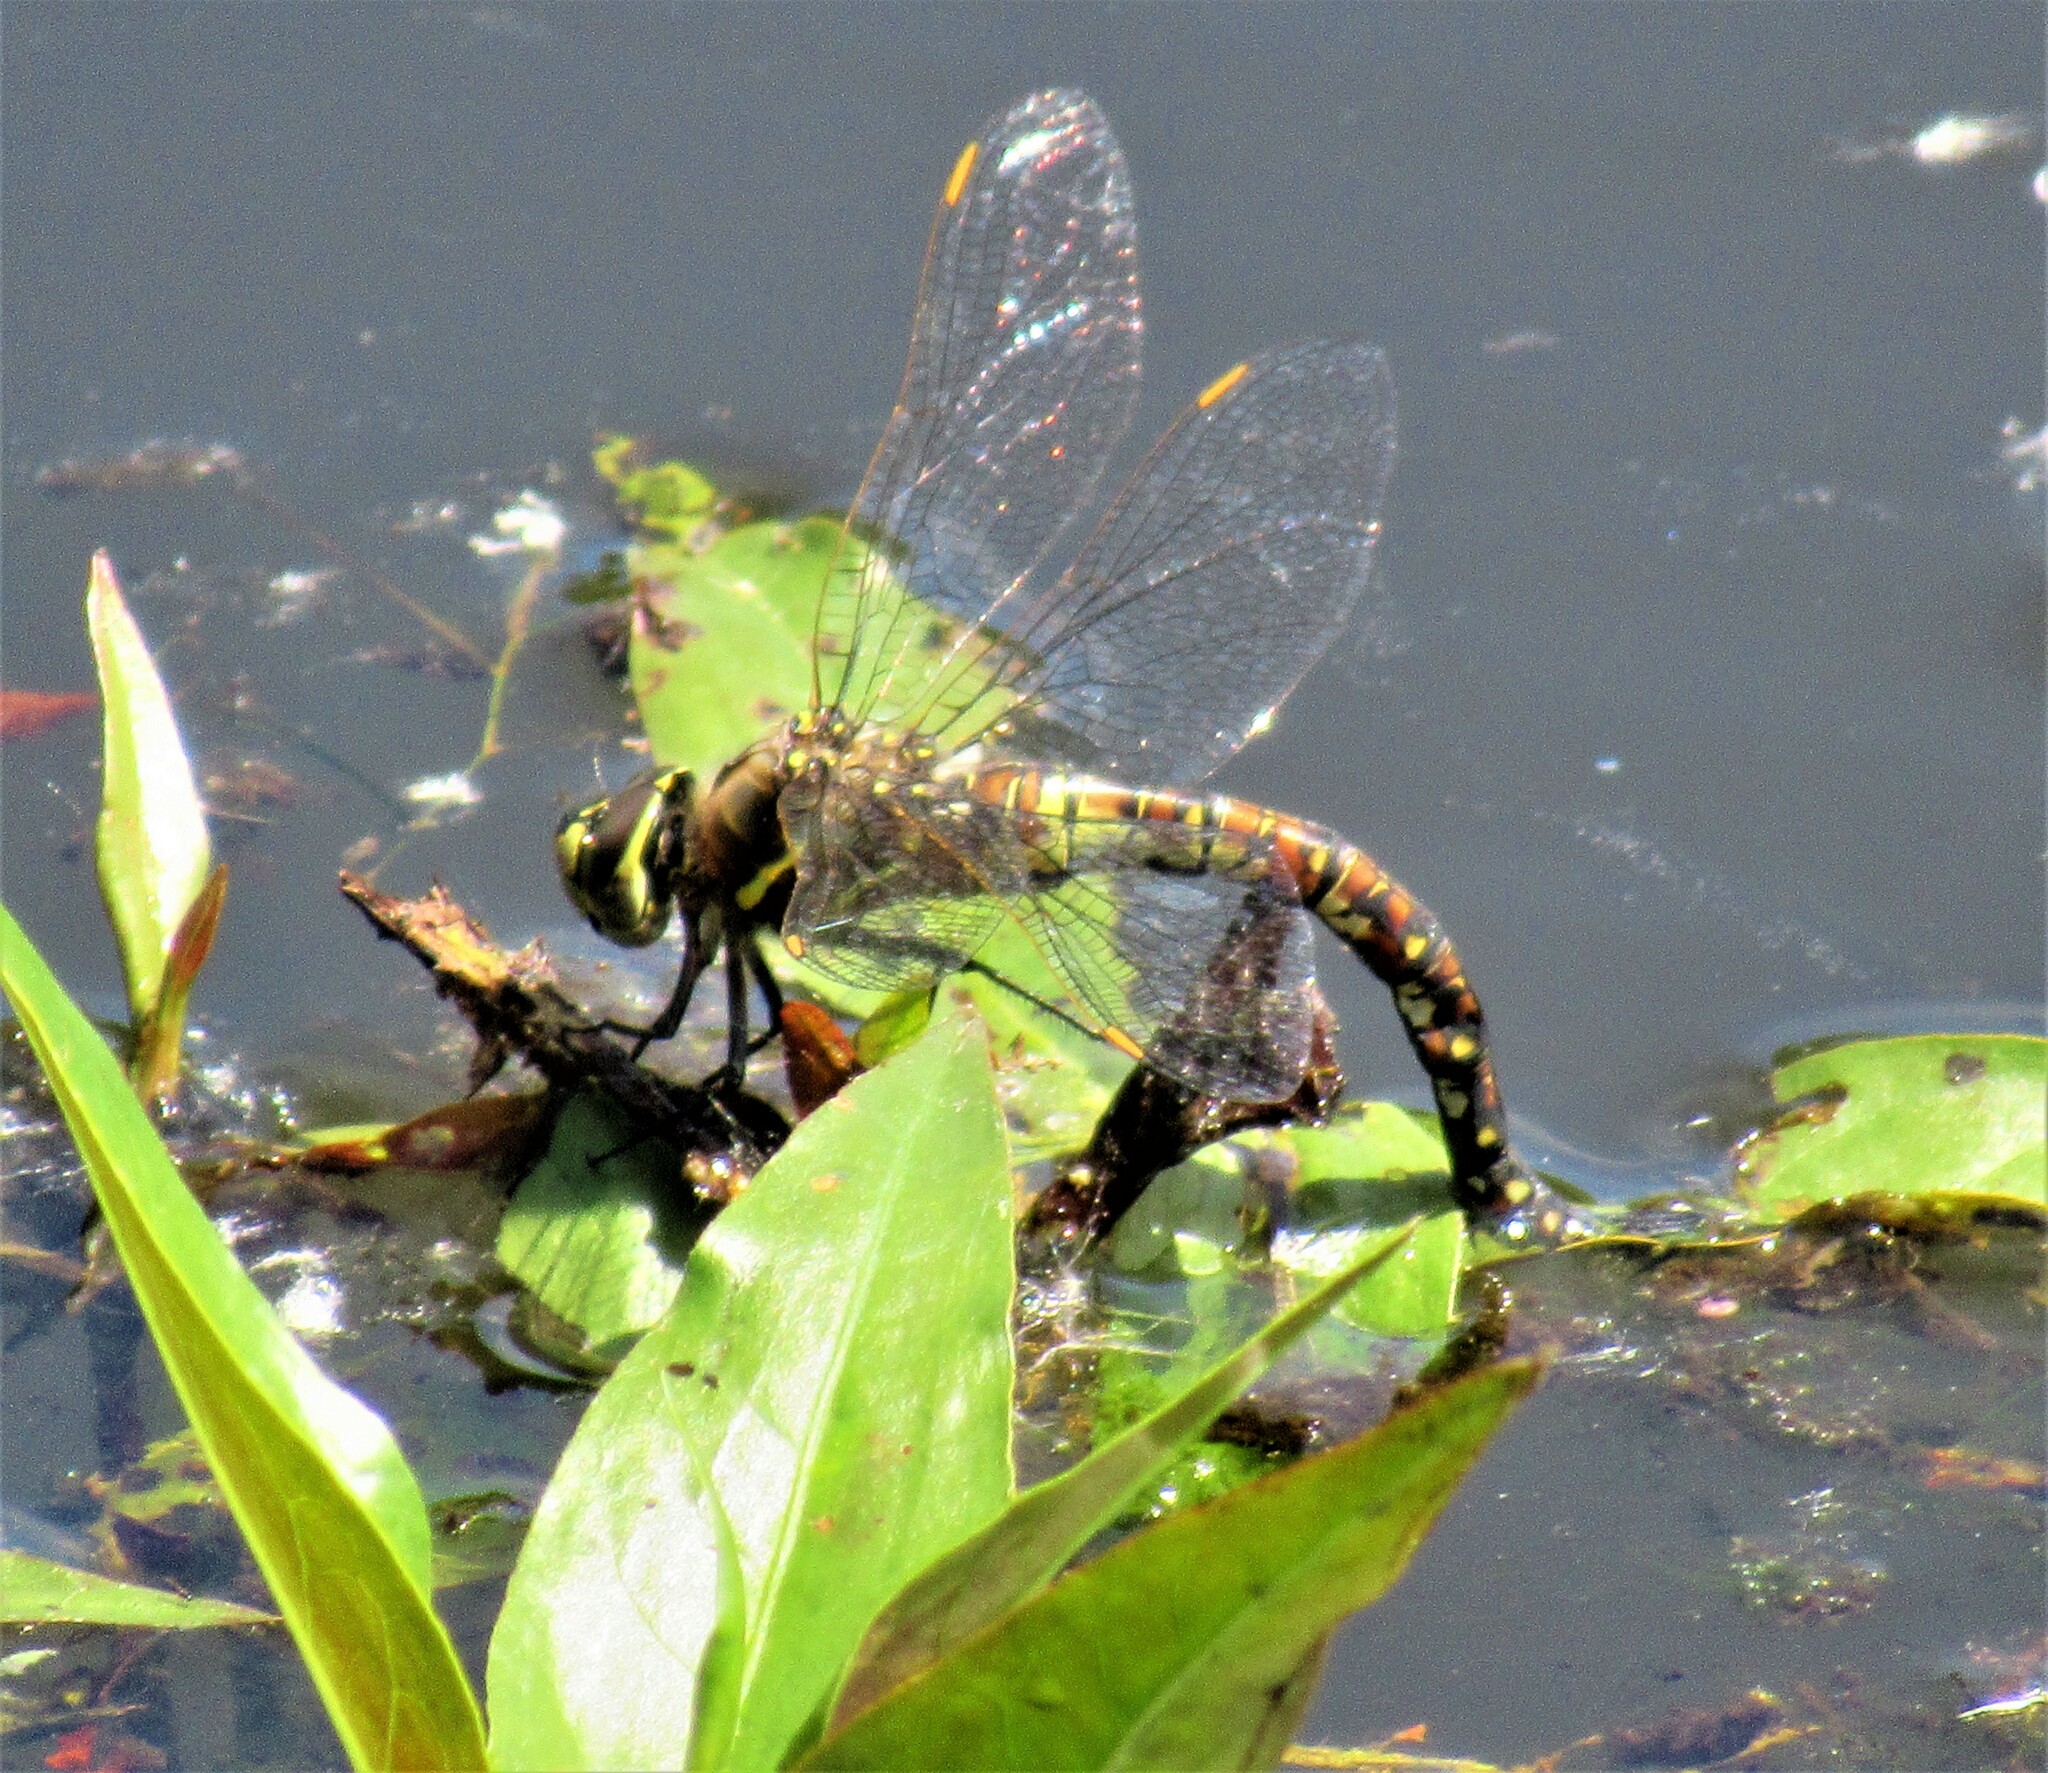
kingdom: Animalia
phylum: Arthropoda
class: Insecta
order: Odonata
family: Aeshnidae
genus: Rhionaeschna
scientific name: Rhionaeschna californica
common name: California darner
